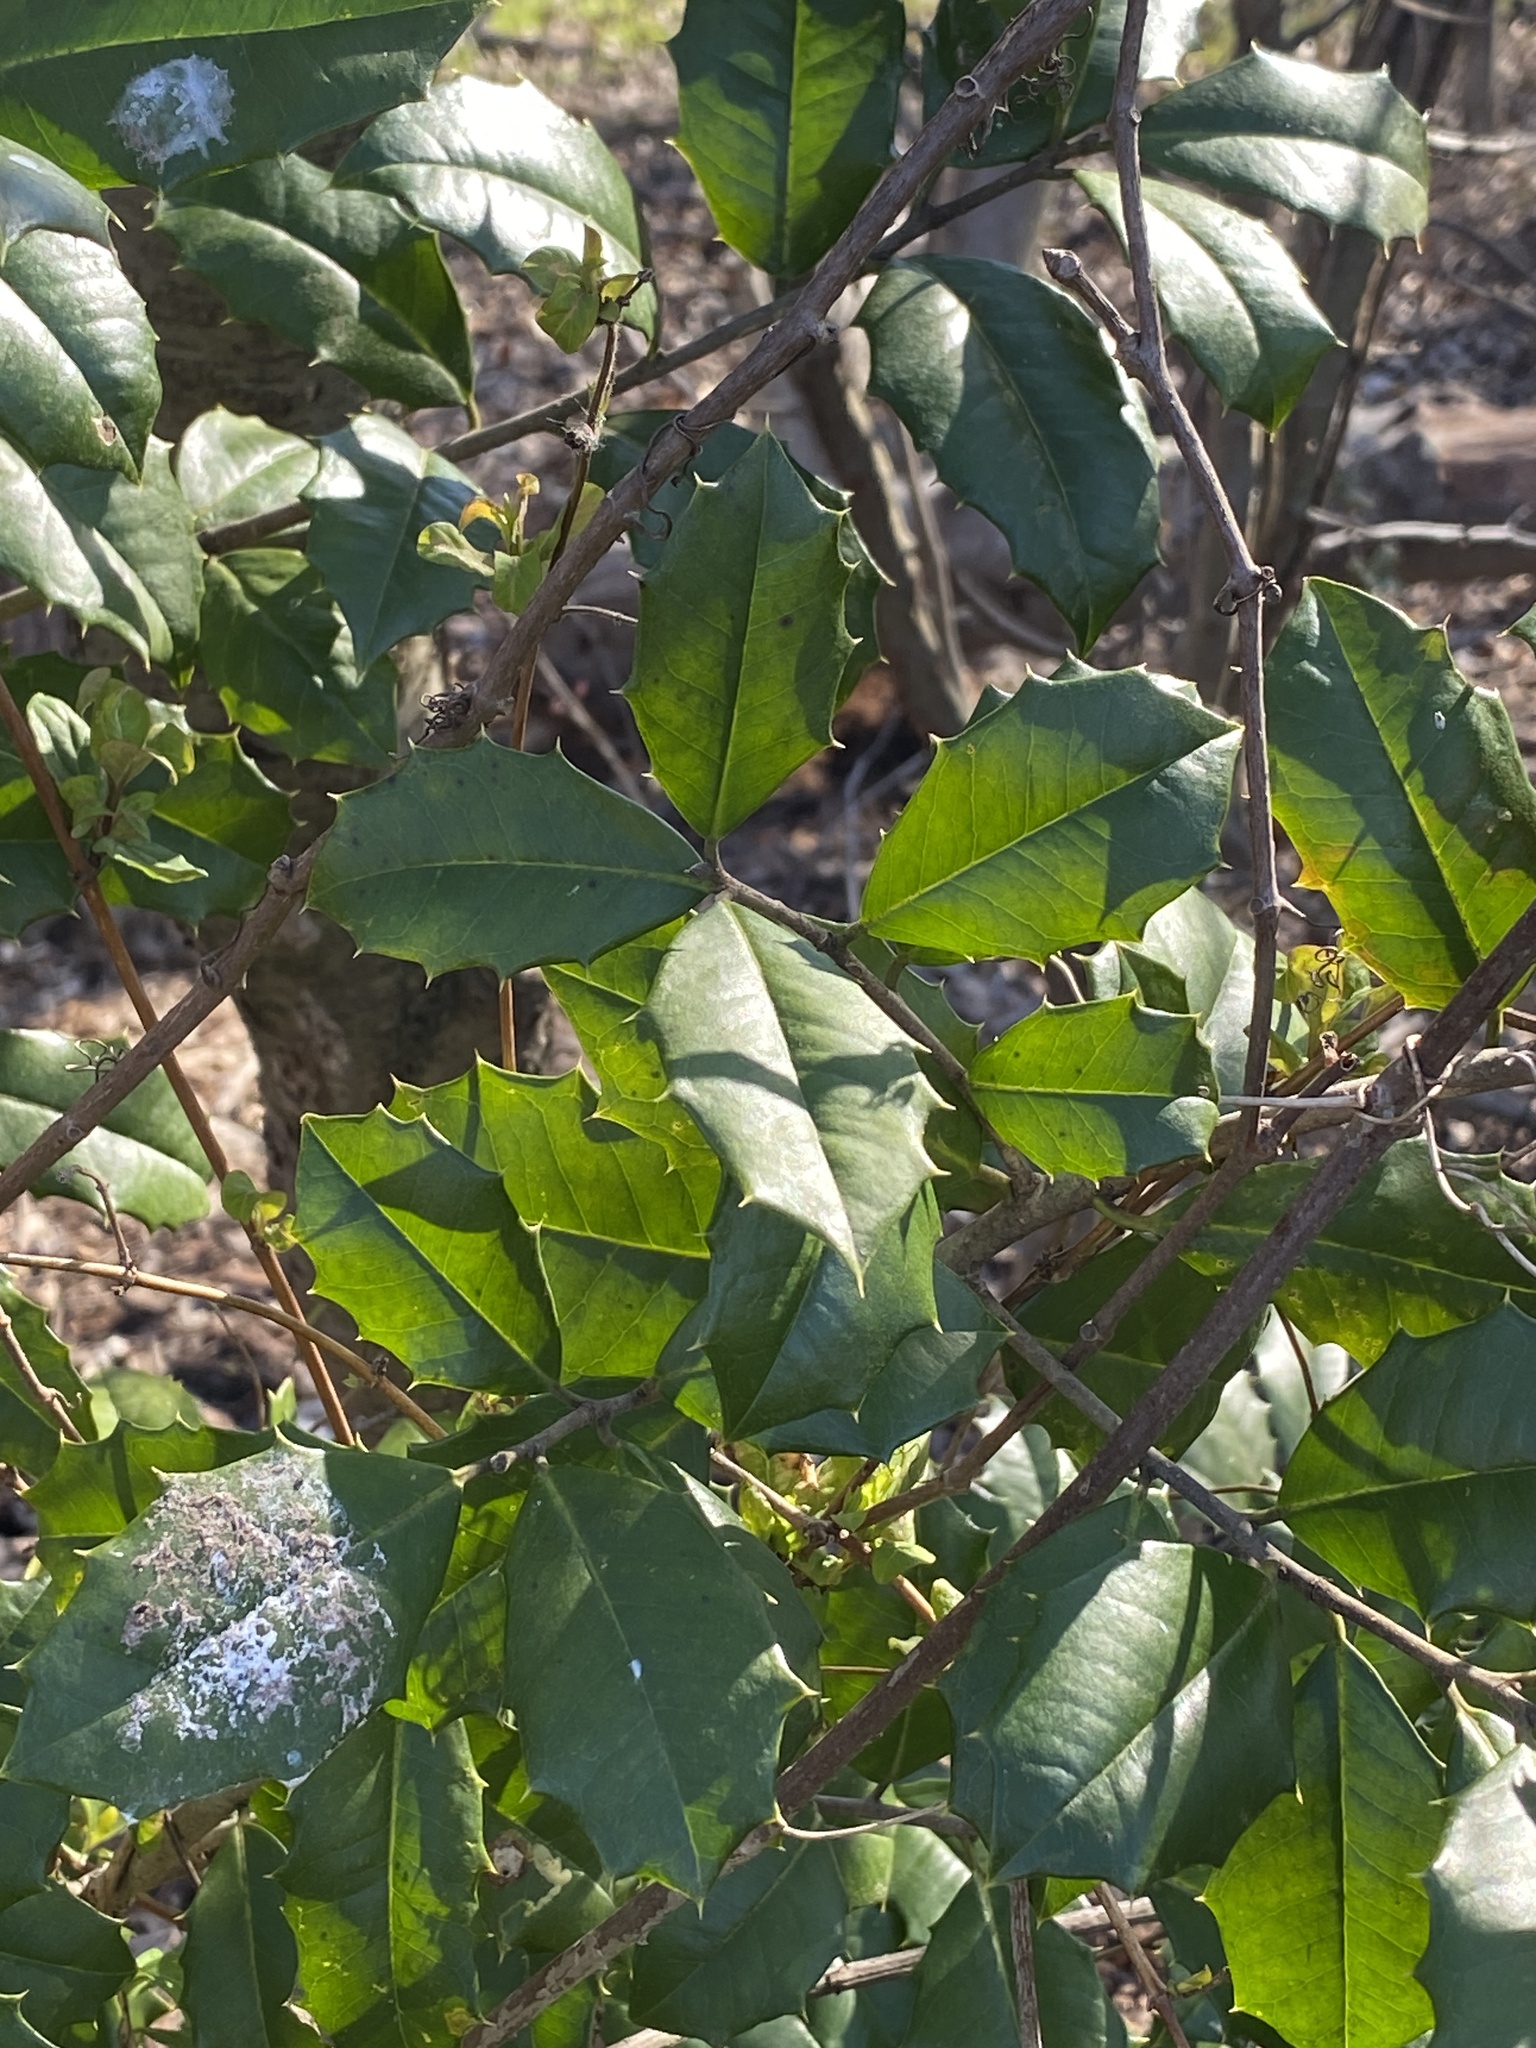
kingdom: Plantae
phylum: Tracheophyta
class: Magnoliopsida
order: Aquifoliales
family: Aquifoliaceae
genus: Ilex
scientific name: Ilex opaca
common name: American holly
